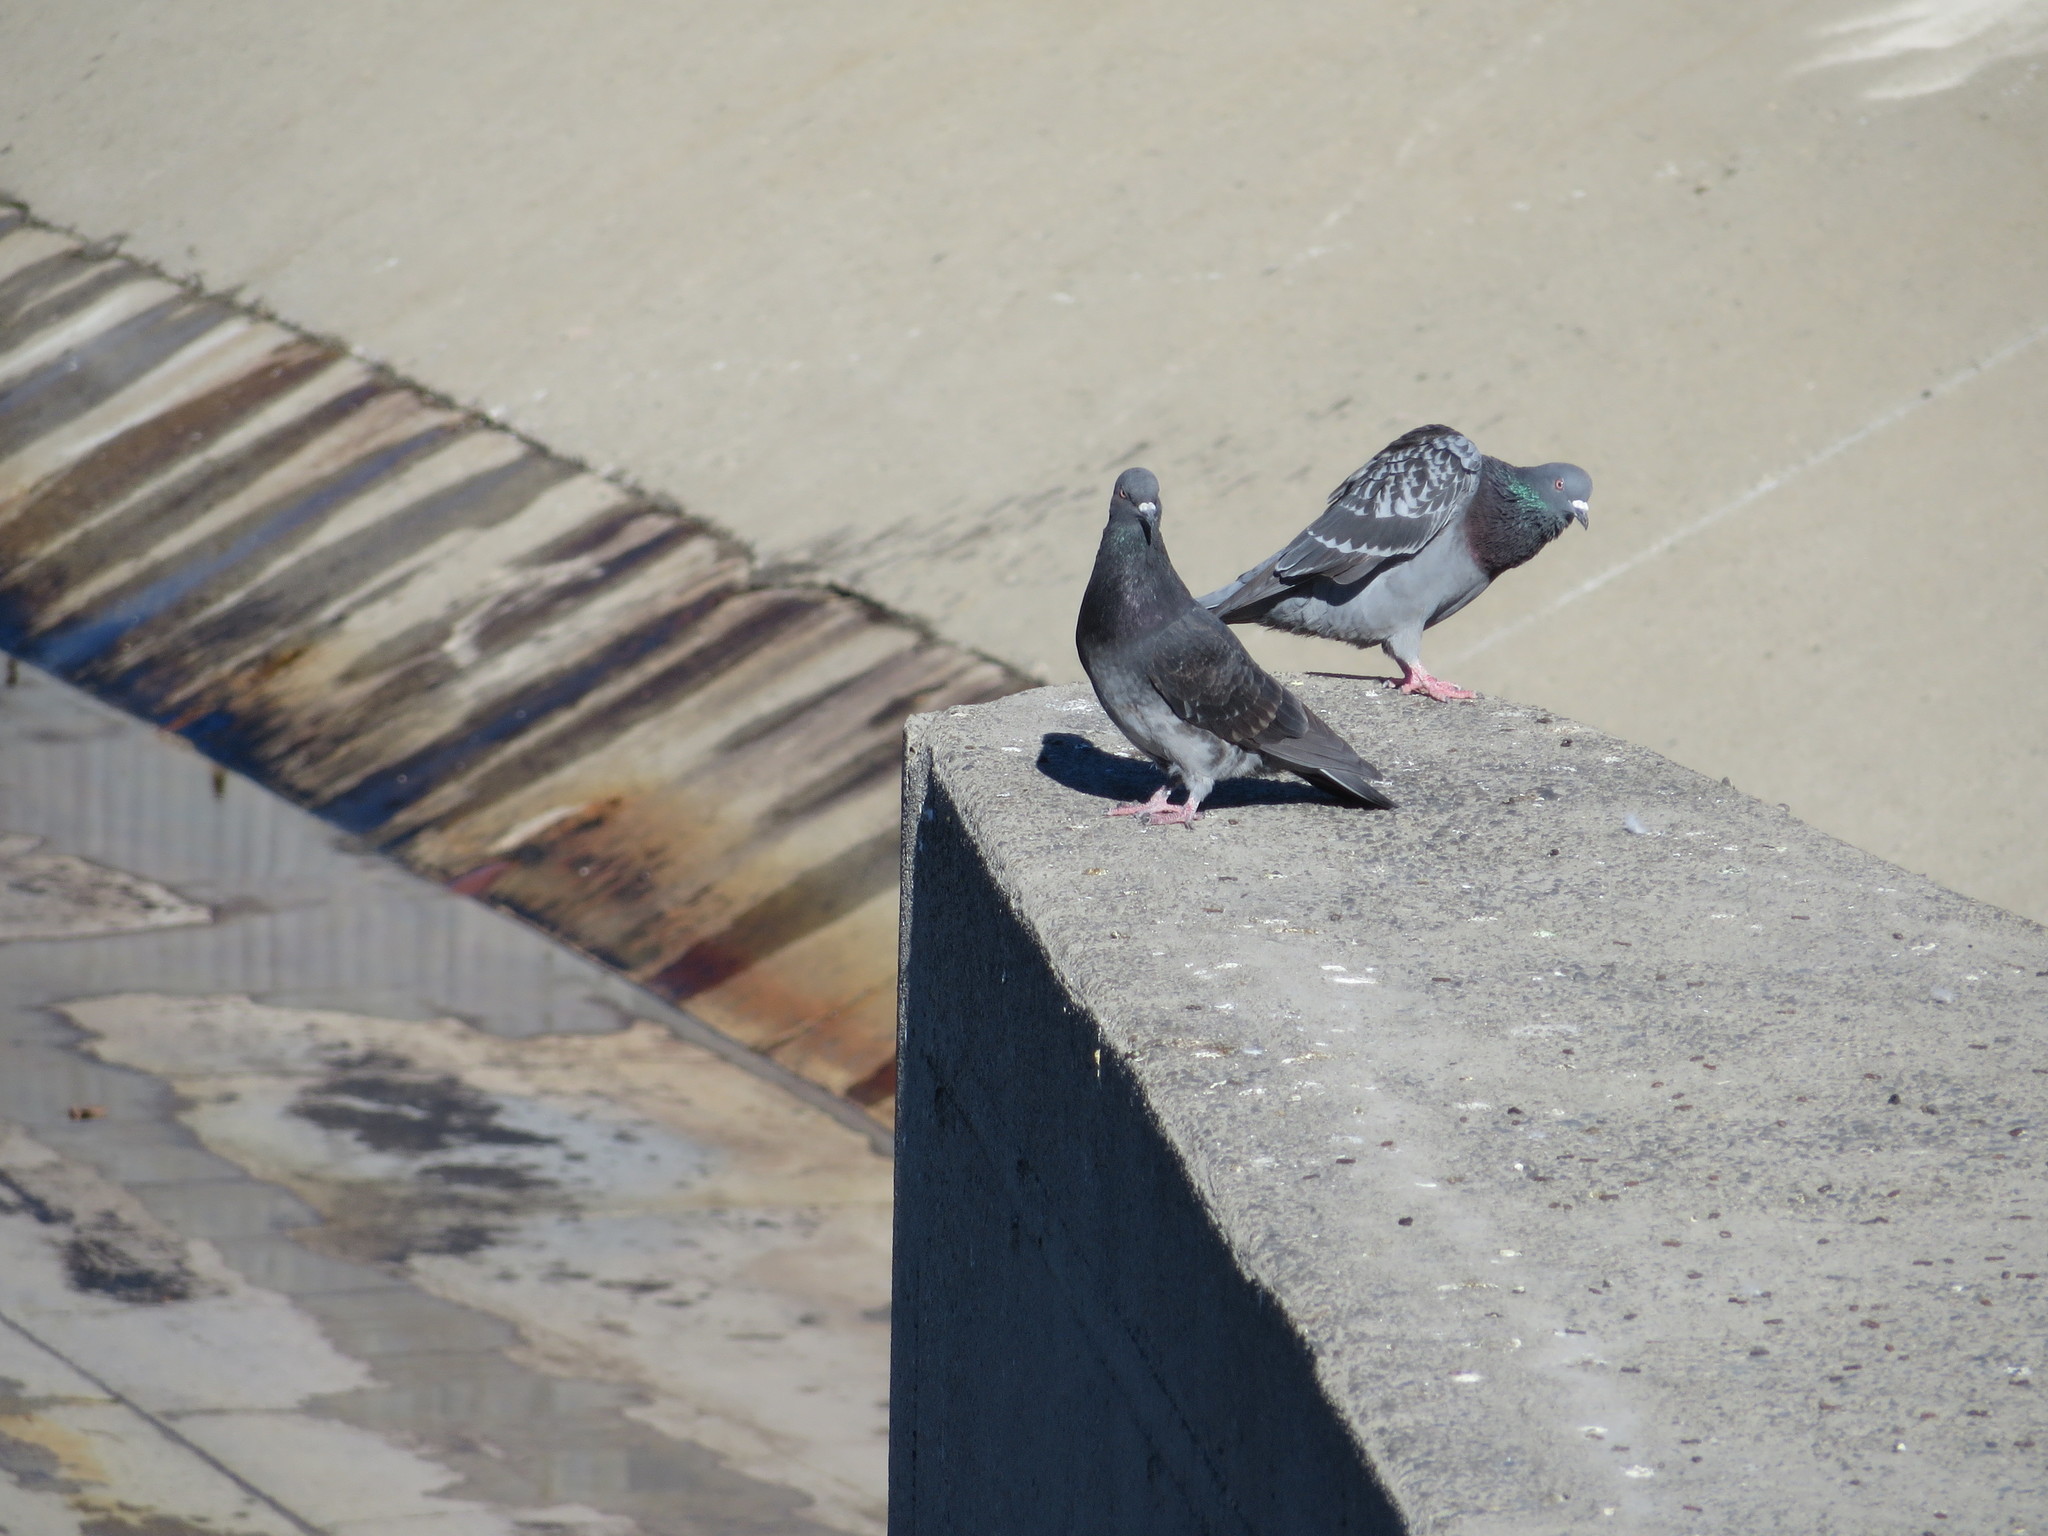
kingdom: Animalia
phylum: Chordata
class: Aves
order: Columbiformes
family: Columbidae
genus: Columba
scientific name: Columba livia
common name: Rock pigeon
